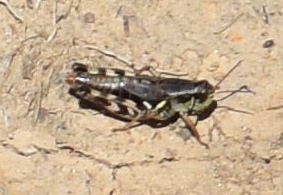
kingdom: Animalia
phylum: Arthropoda
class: Insecta
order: Orthoptera
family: Acrididae
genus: Melanoplus
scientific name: Melanoplus gothicus
